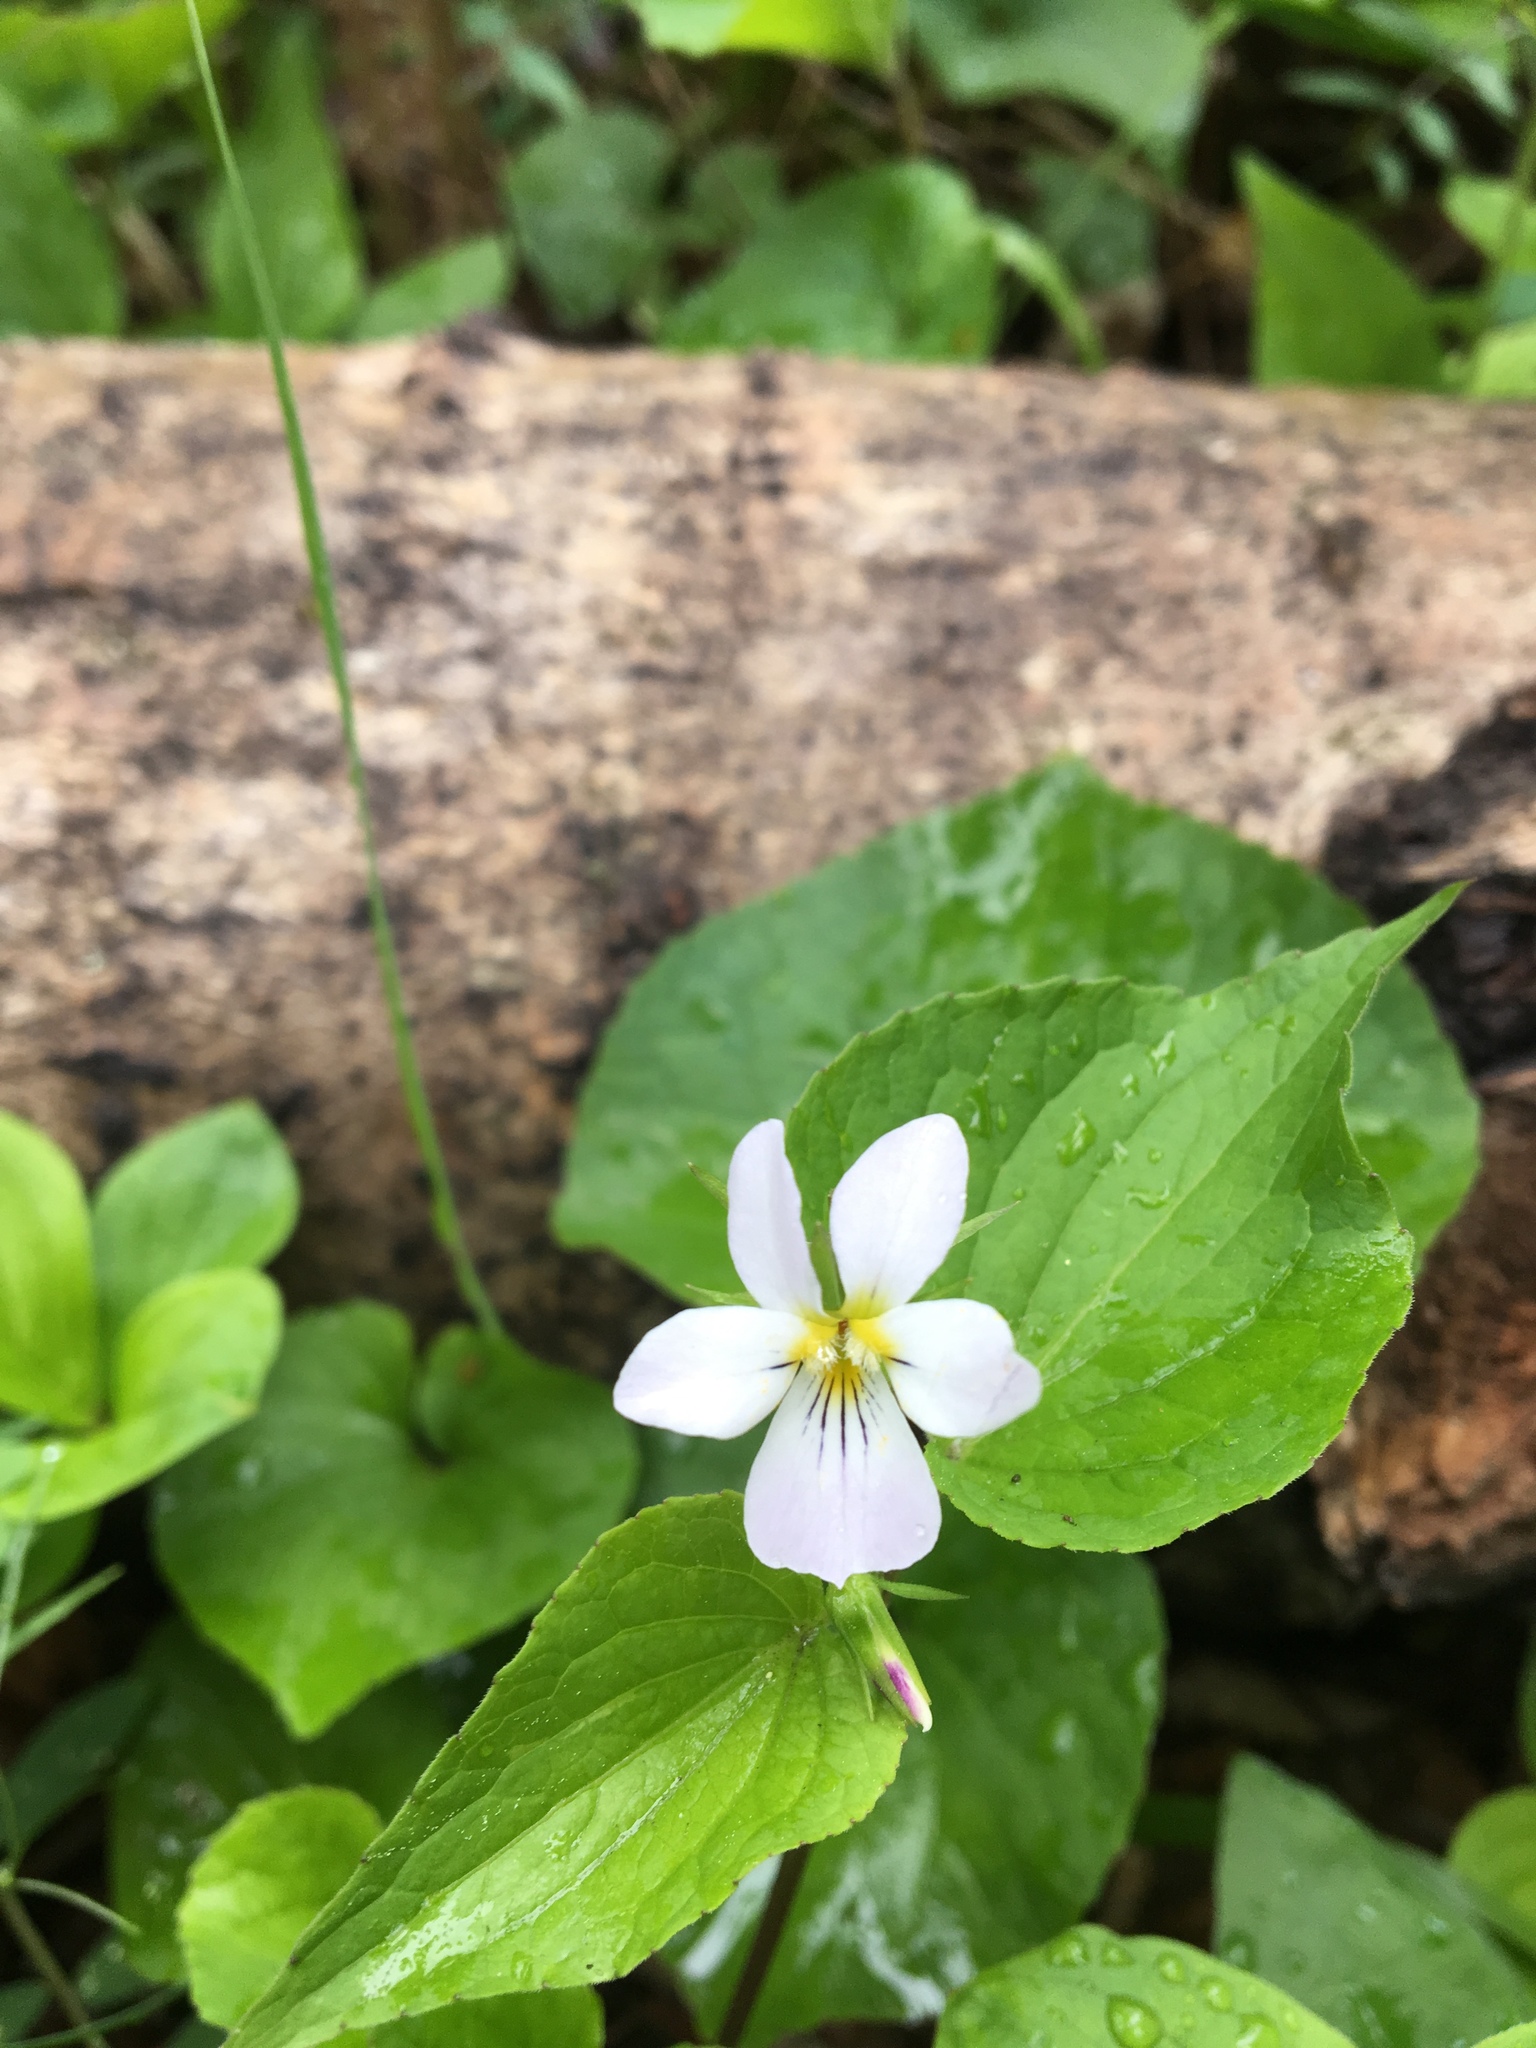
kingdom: Plantae
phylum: Tracheophyta
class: Magnoliopsida
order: Malpighiales
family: Violaceae
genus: Viola
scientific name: Viola canadensis
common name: Canada violet
